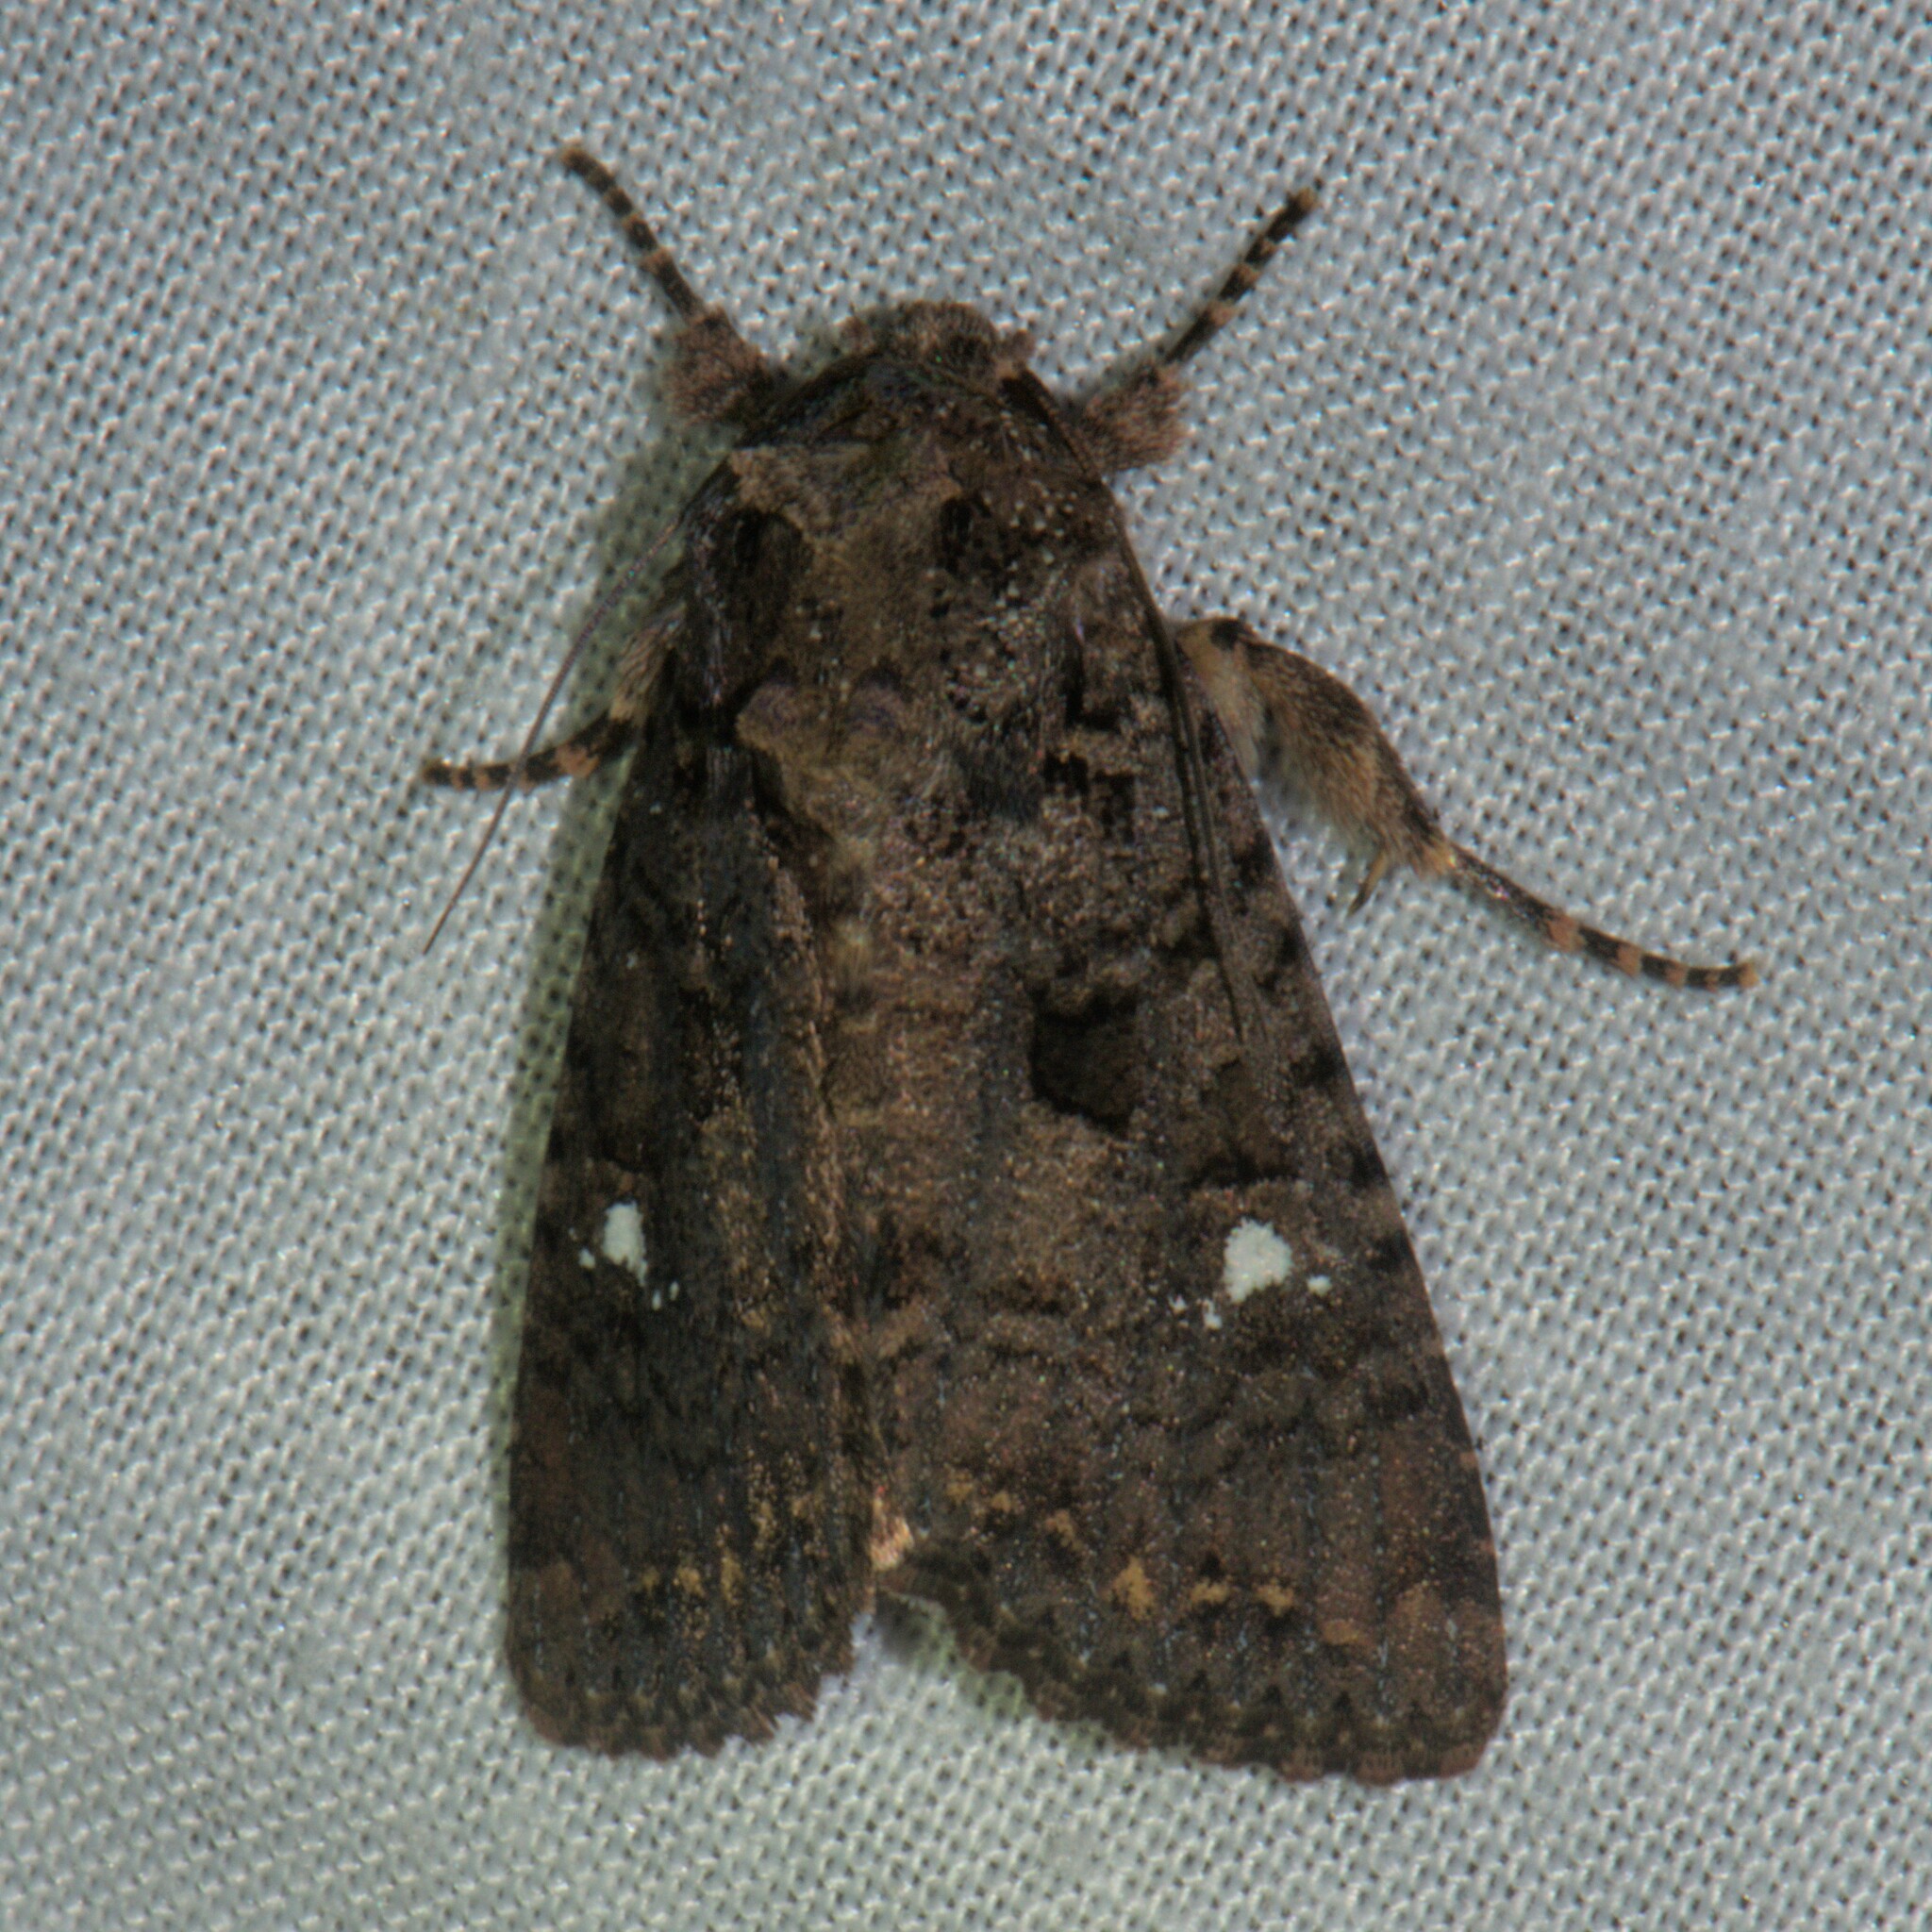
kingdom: Animalia
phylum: Arthropoda
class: Insecta
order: Lepidoptera
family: Noctuidae
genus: Feliniopsis
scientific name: Feliniopsis siderifera
